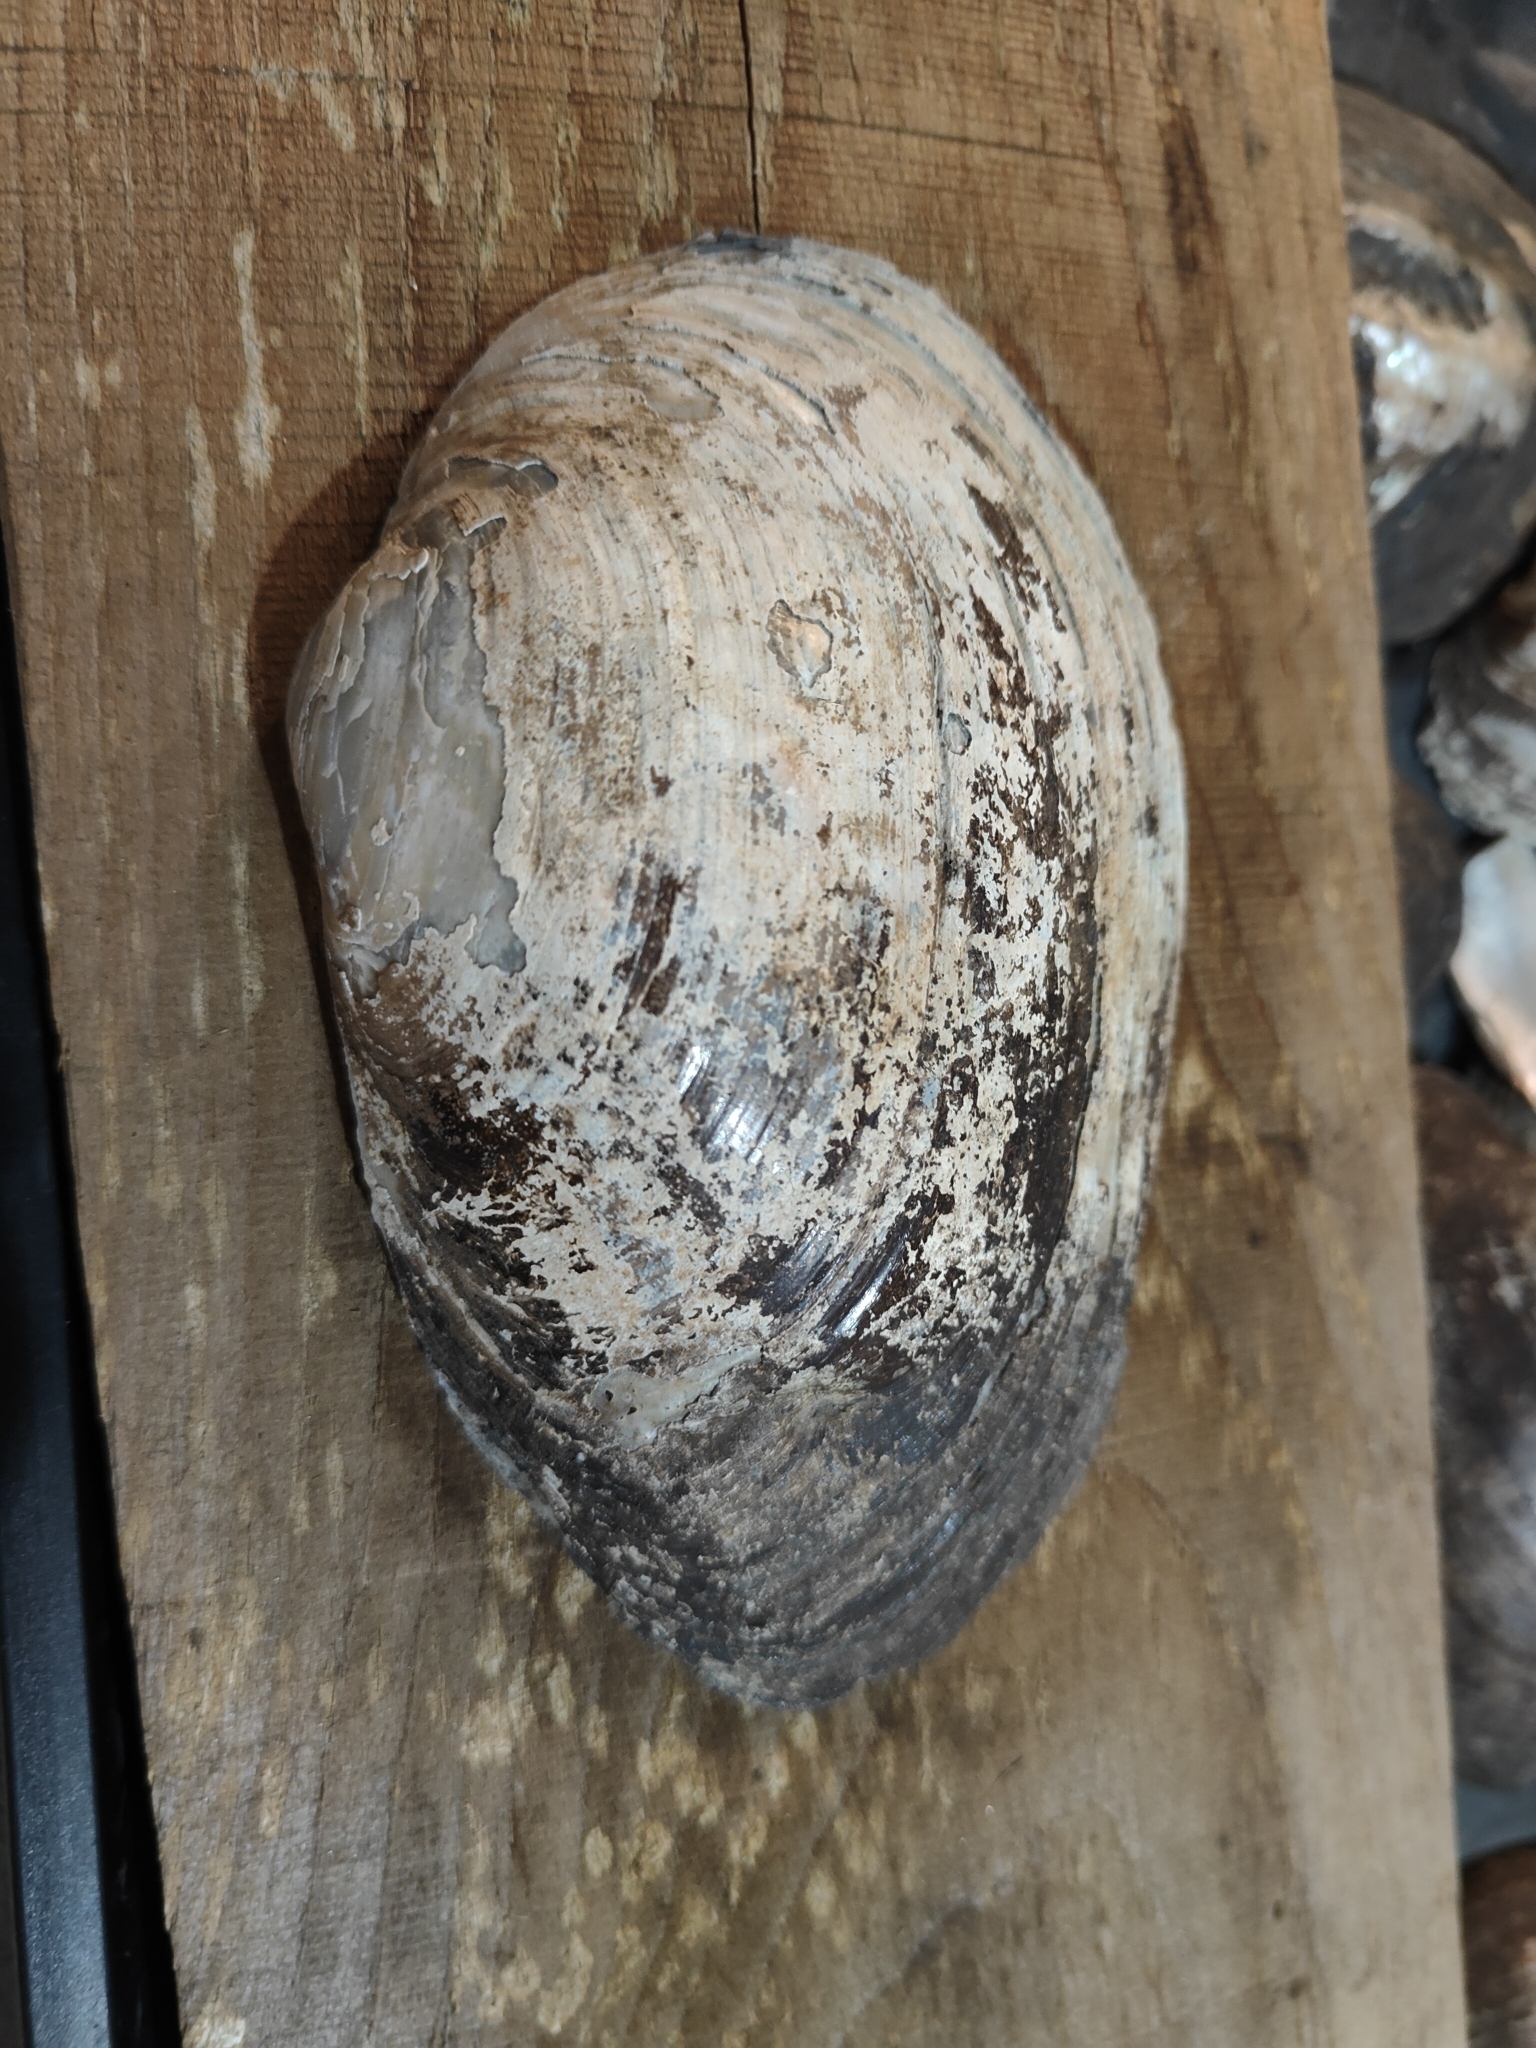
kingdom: Animalia
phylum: Mollusca
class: Bivalvia
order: Unionida
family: Unionidae
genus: Pyganodon
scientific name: Pyganodon grandis
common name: Giant floater
